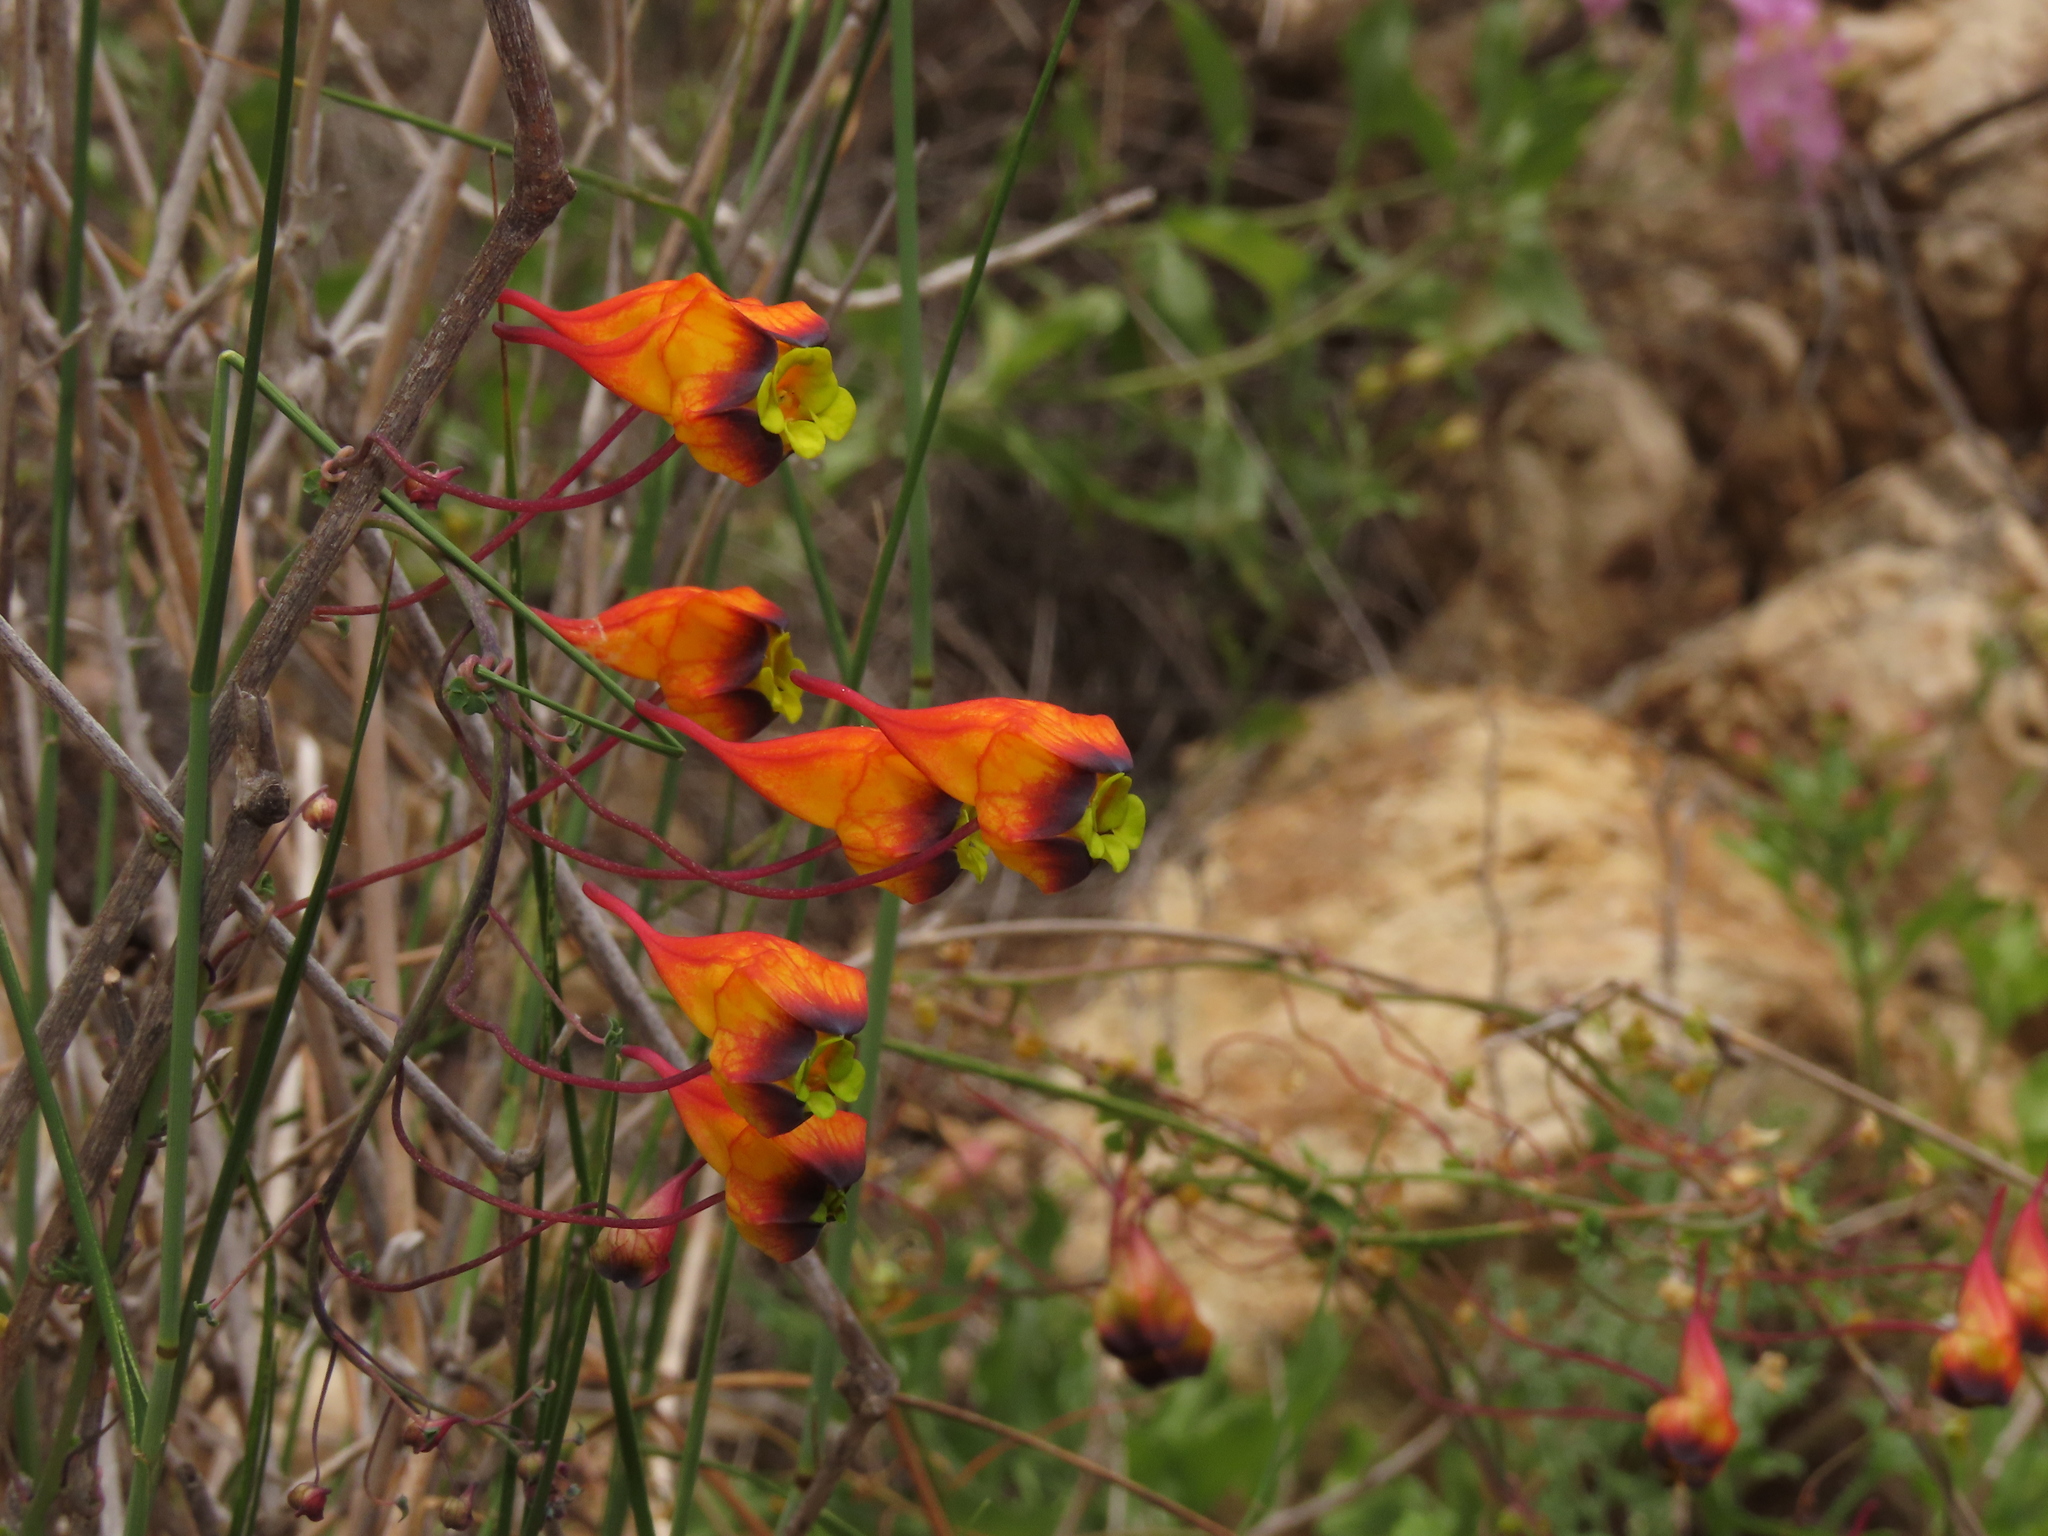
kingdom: Plantae
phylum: Tracheophyta
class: Magnoliopsida
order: Brassicales
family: Tropaeolaceae
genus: Tropaeolum
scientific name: Tropaeolum tricolor
